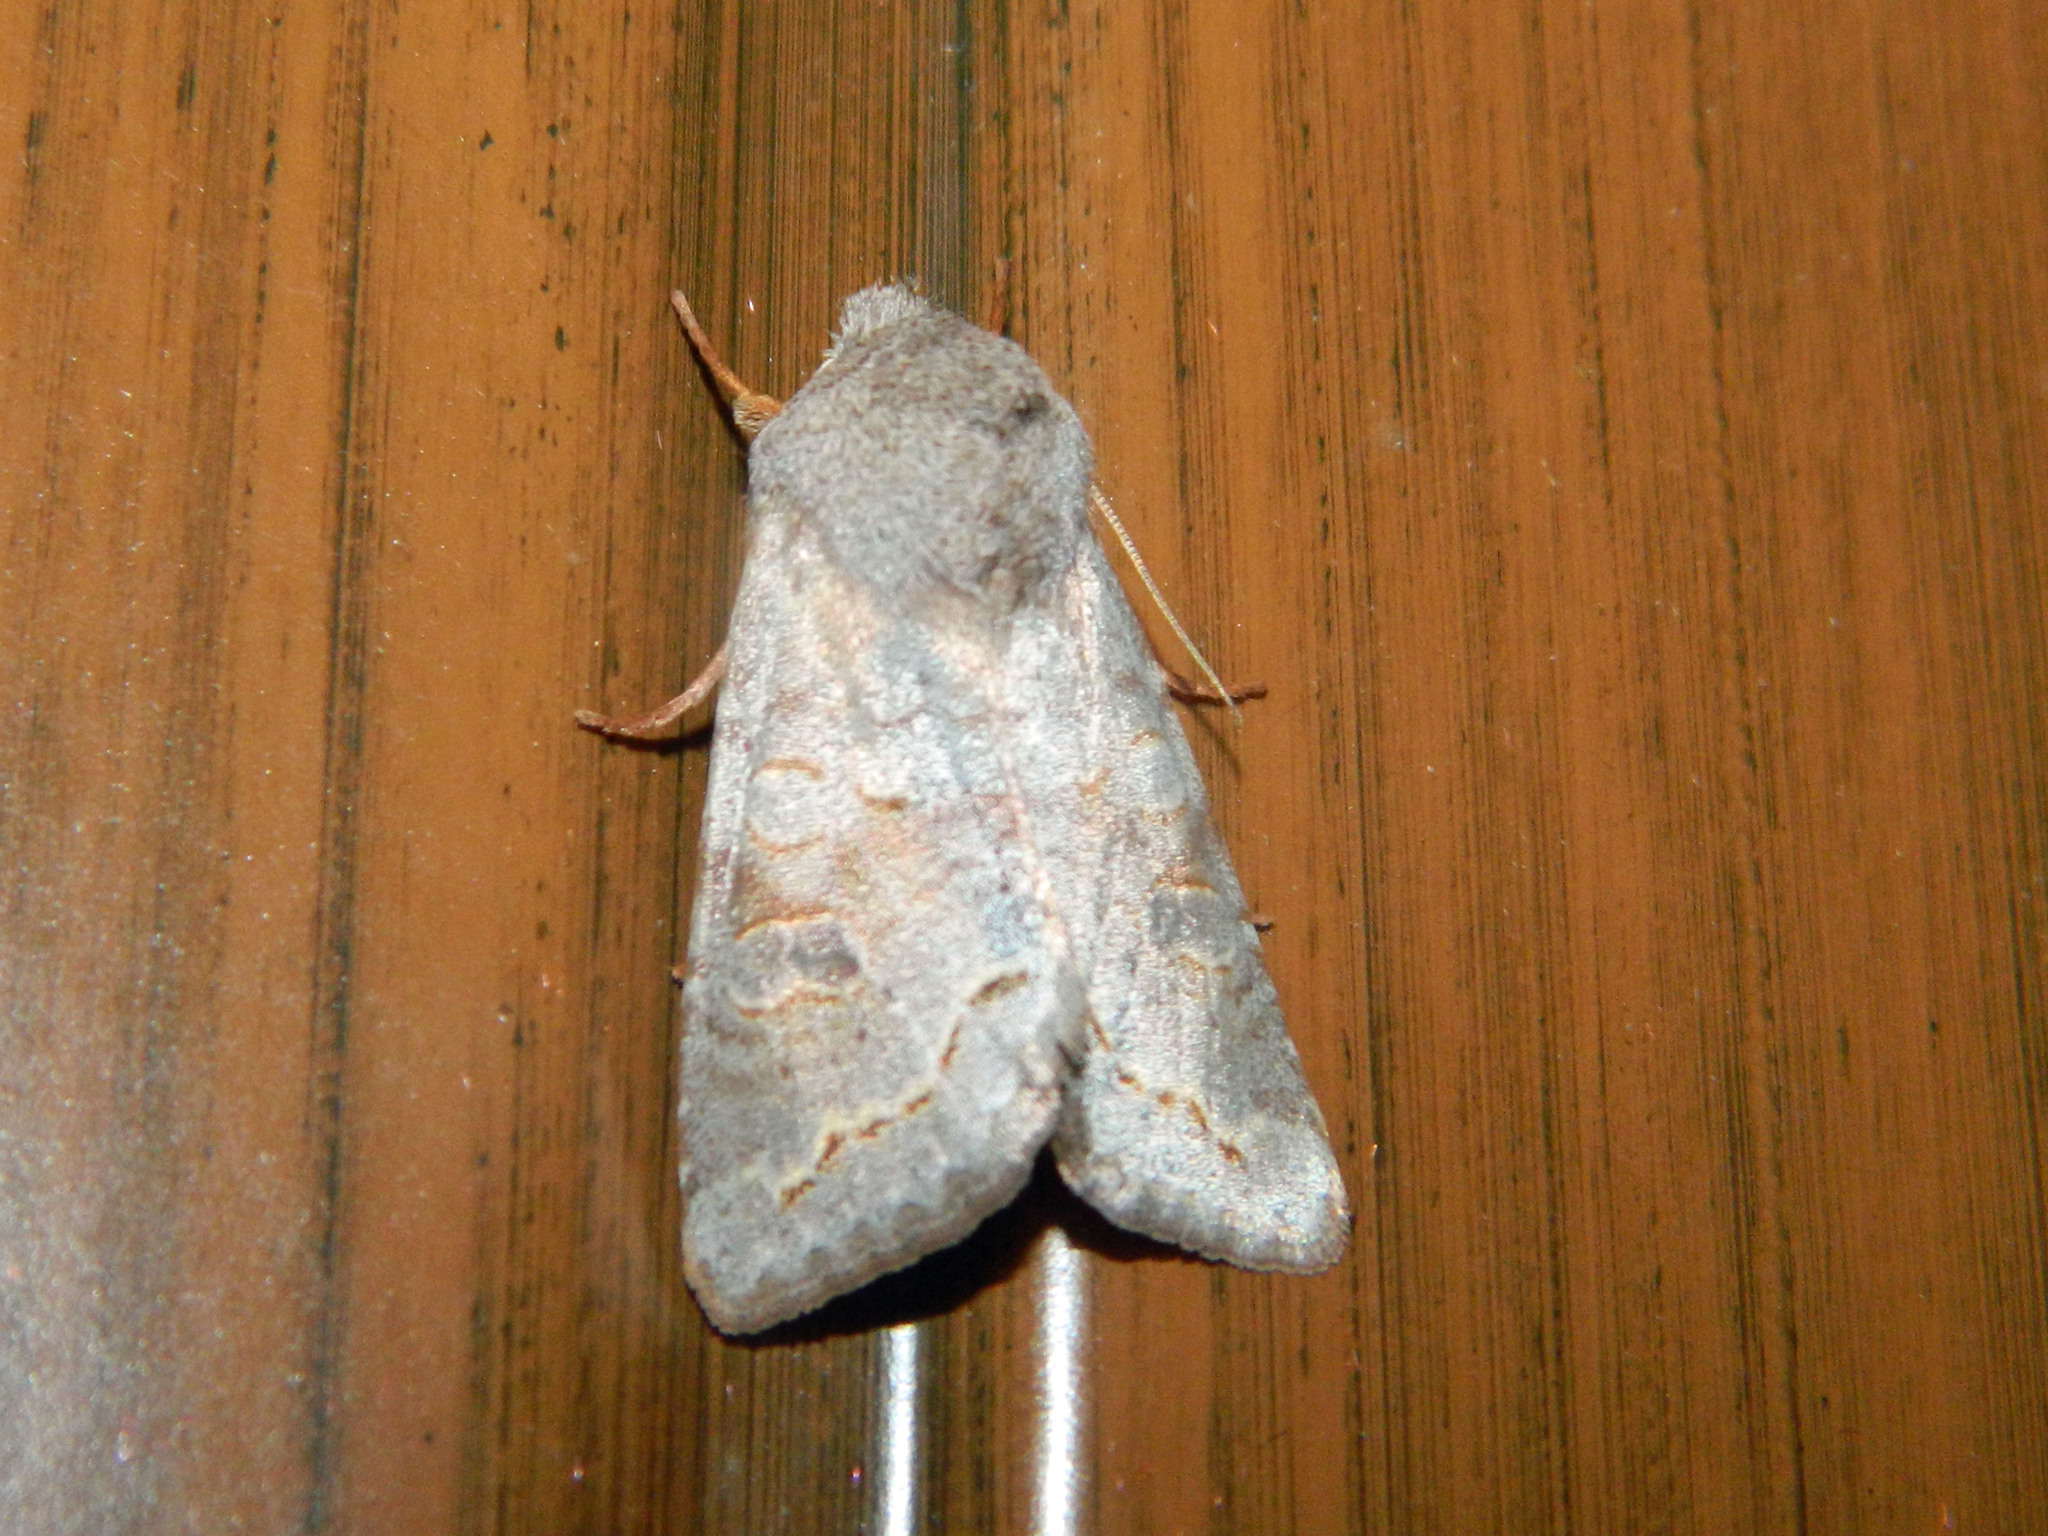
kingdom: Animalia
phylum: Arthropoda
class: Insecta
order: Lepidoptera
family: Noctuidae
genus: Orthosia
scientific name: Orthosia revicta
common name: Rusty whitesided caterpillar
